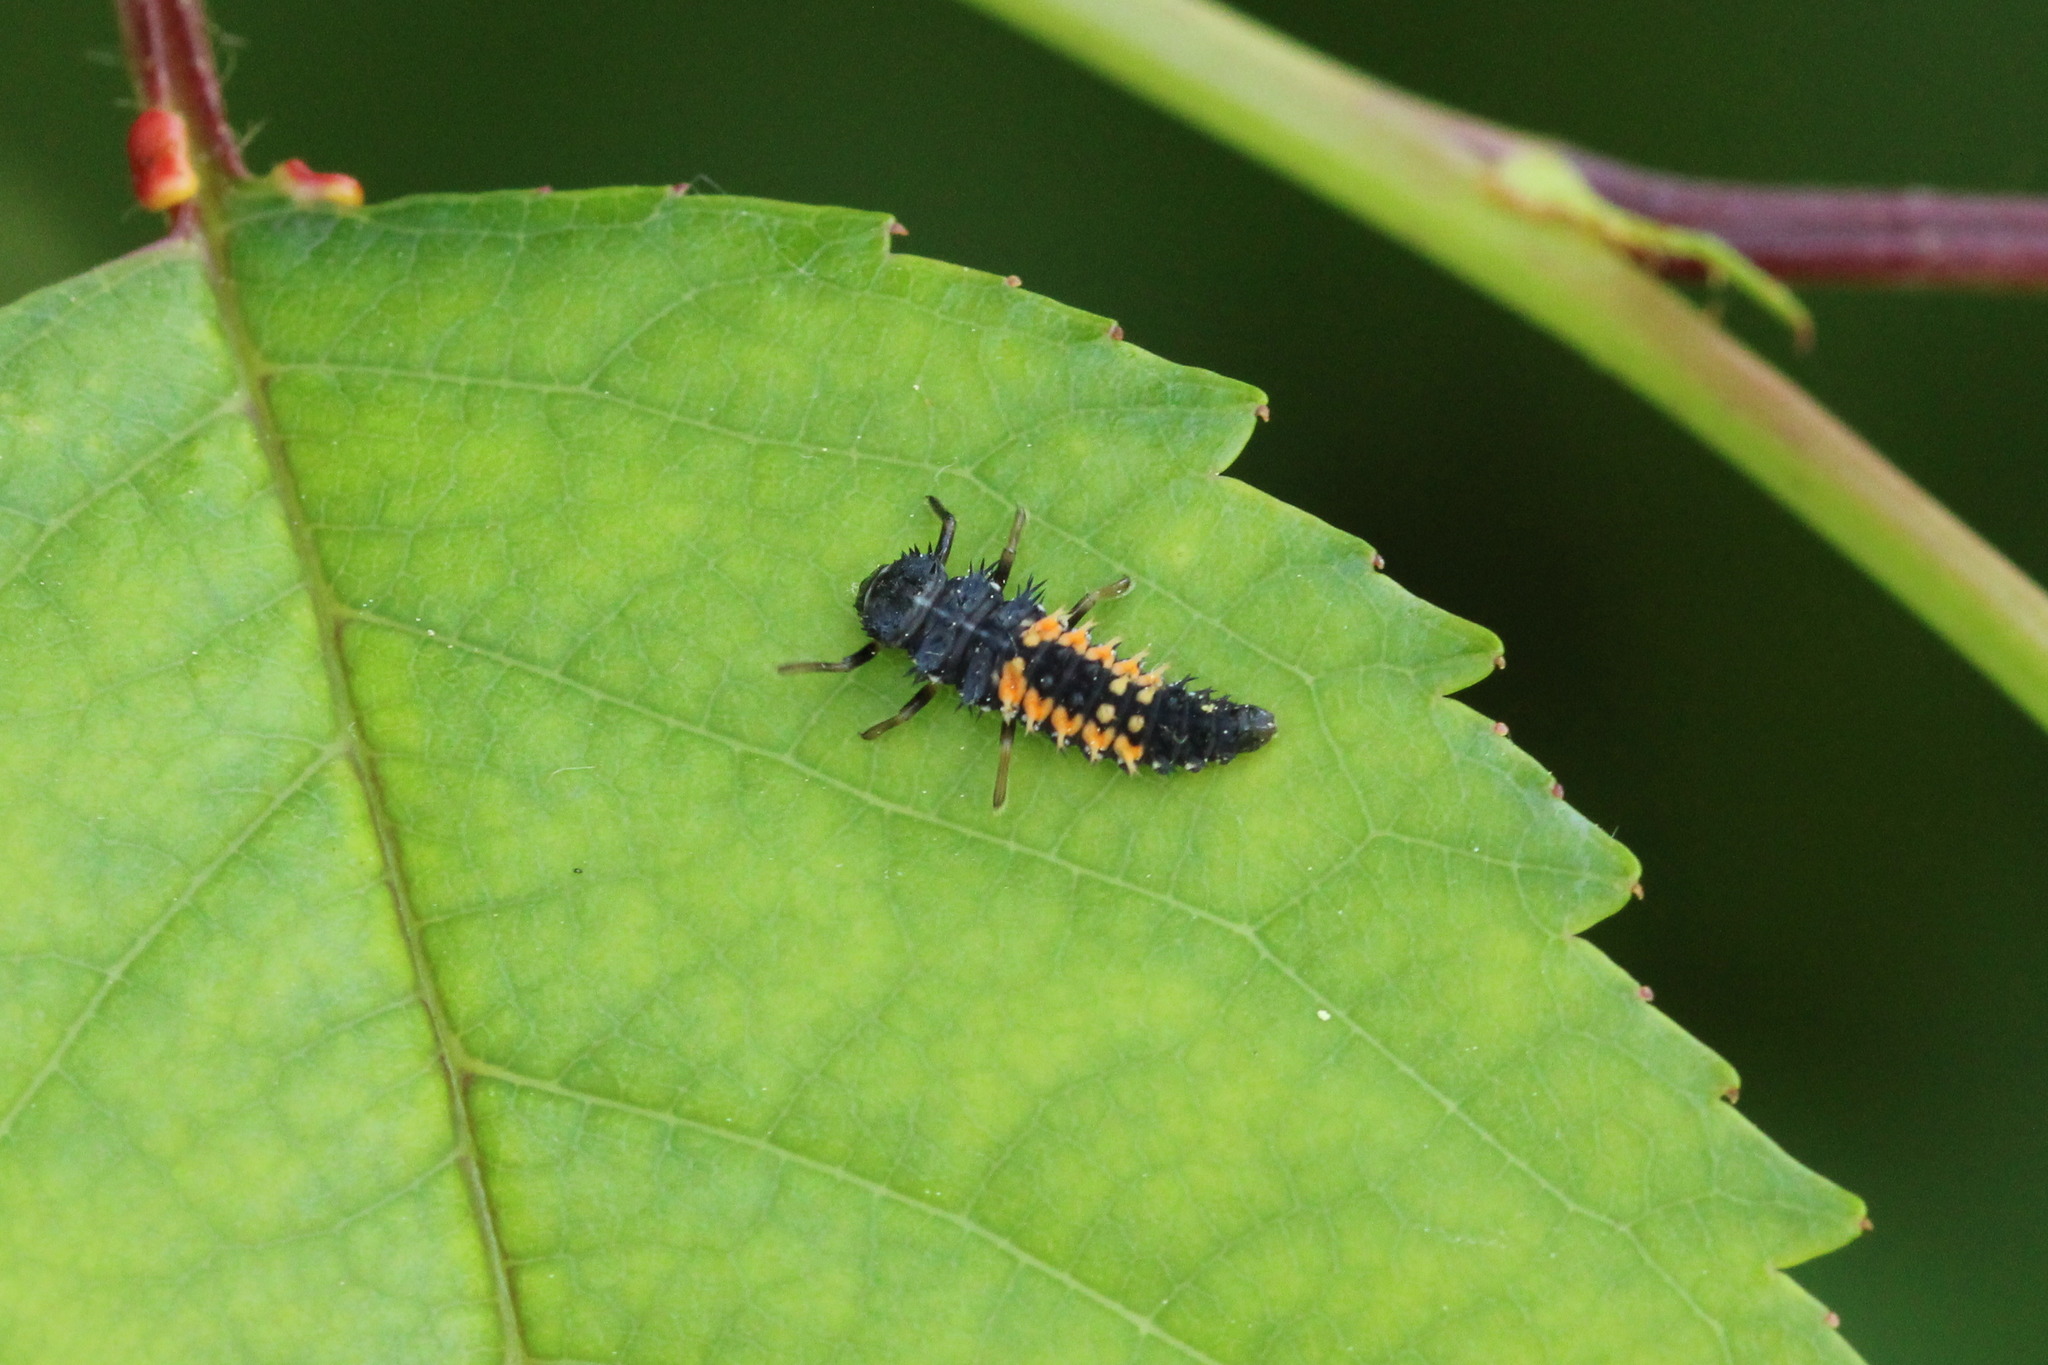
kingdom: Animalia
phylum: Arthropoda
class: Insecta
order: Coleoptera
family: Coccinellidae
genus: Harmonia
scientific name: Harmonia axyridis
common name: Harlequin ladybird
